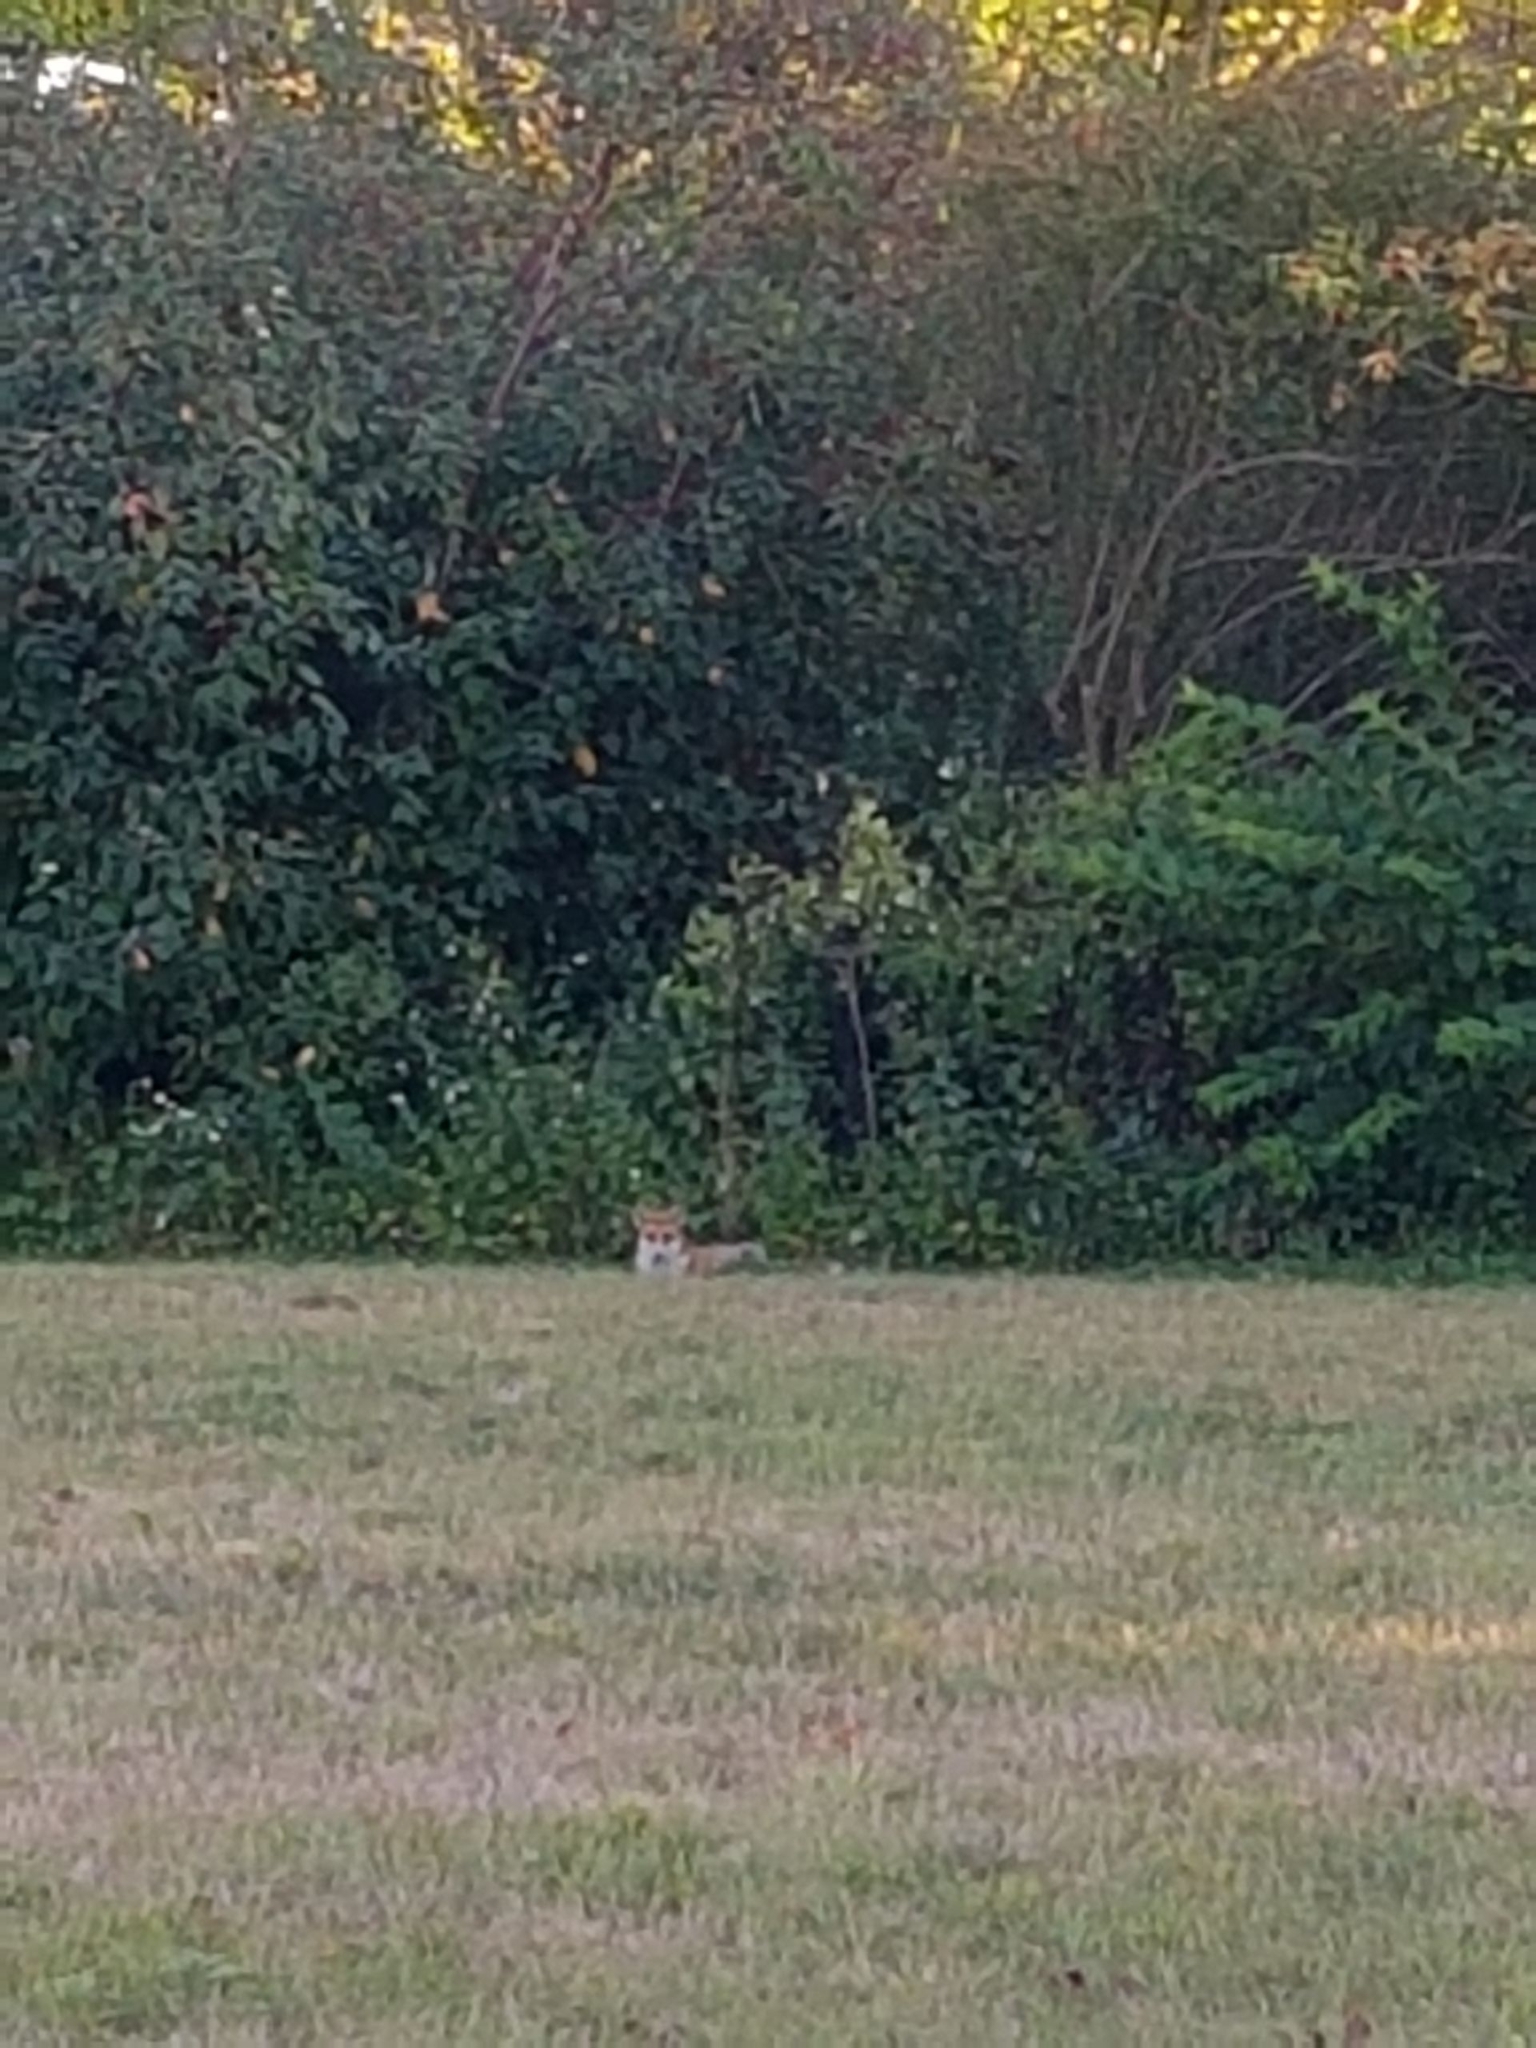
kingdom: Animalia
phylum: Chordata
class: Mammalia
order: Carnivora
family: Canidae
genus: Vulpes
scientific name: Vulpes vulpes
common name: Red fox
